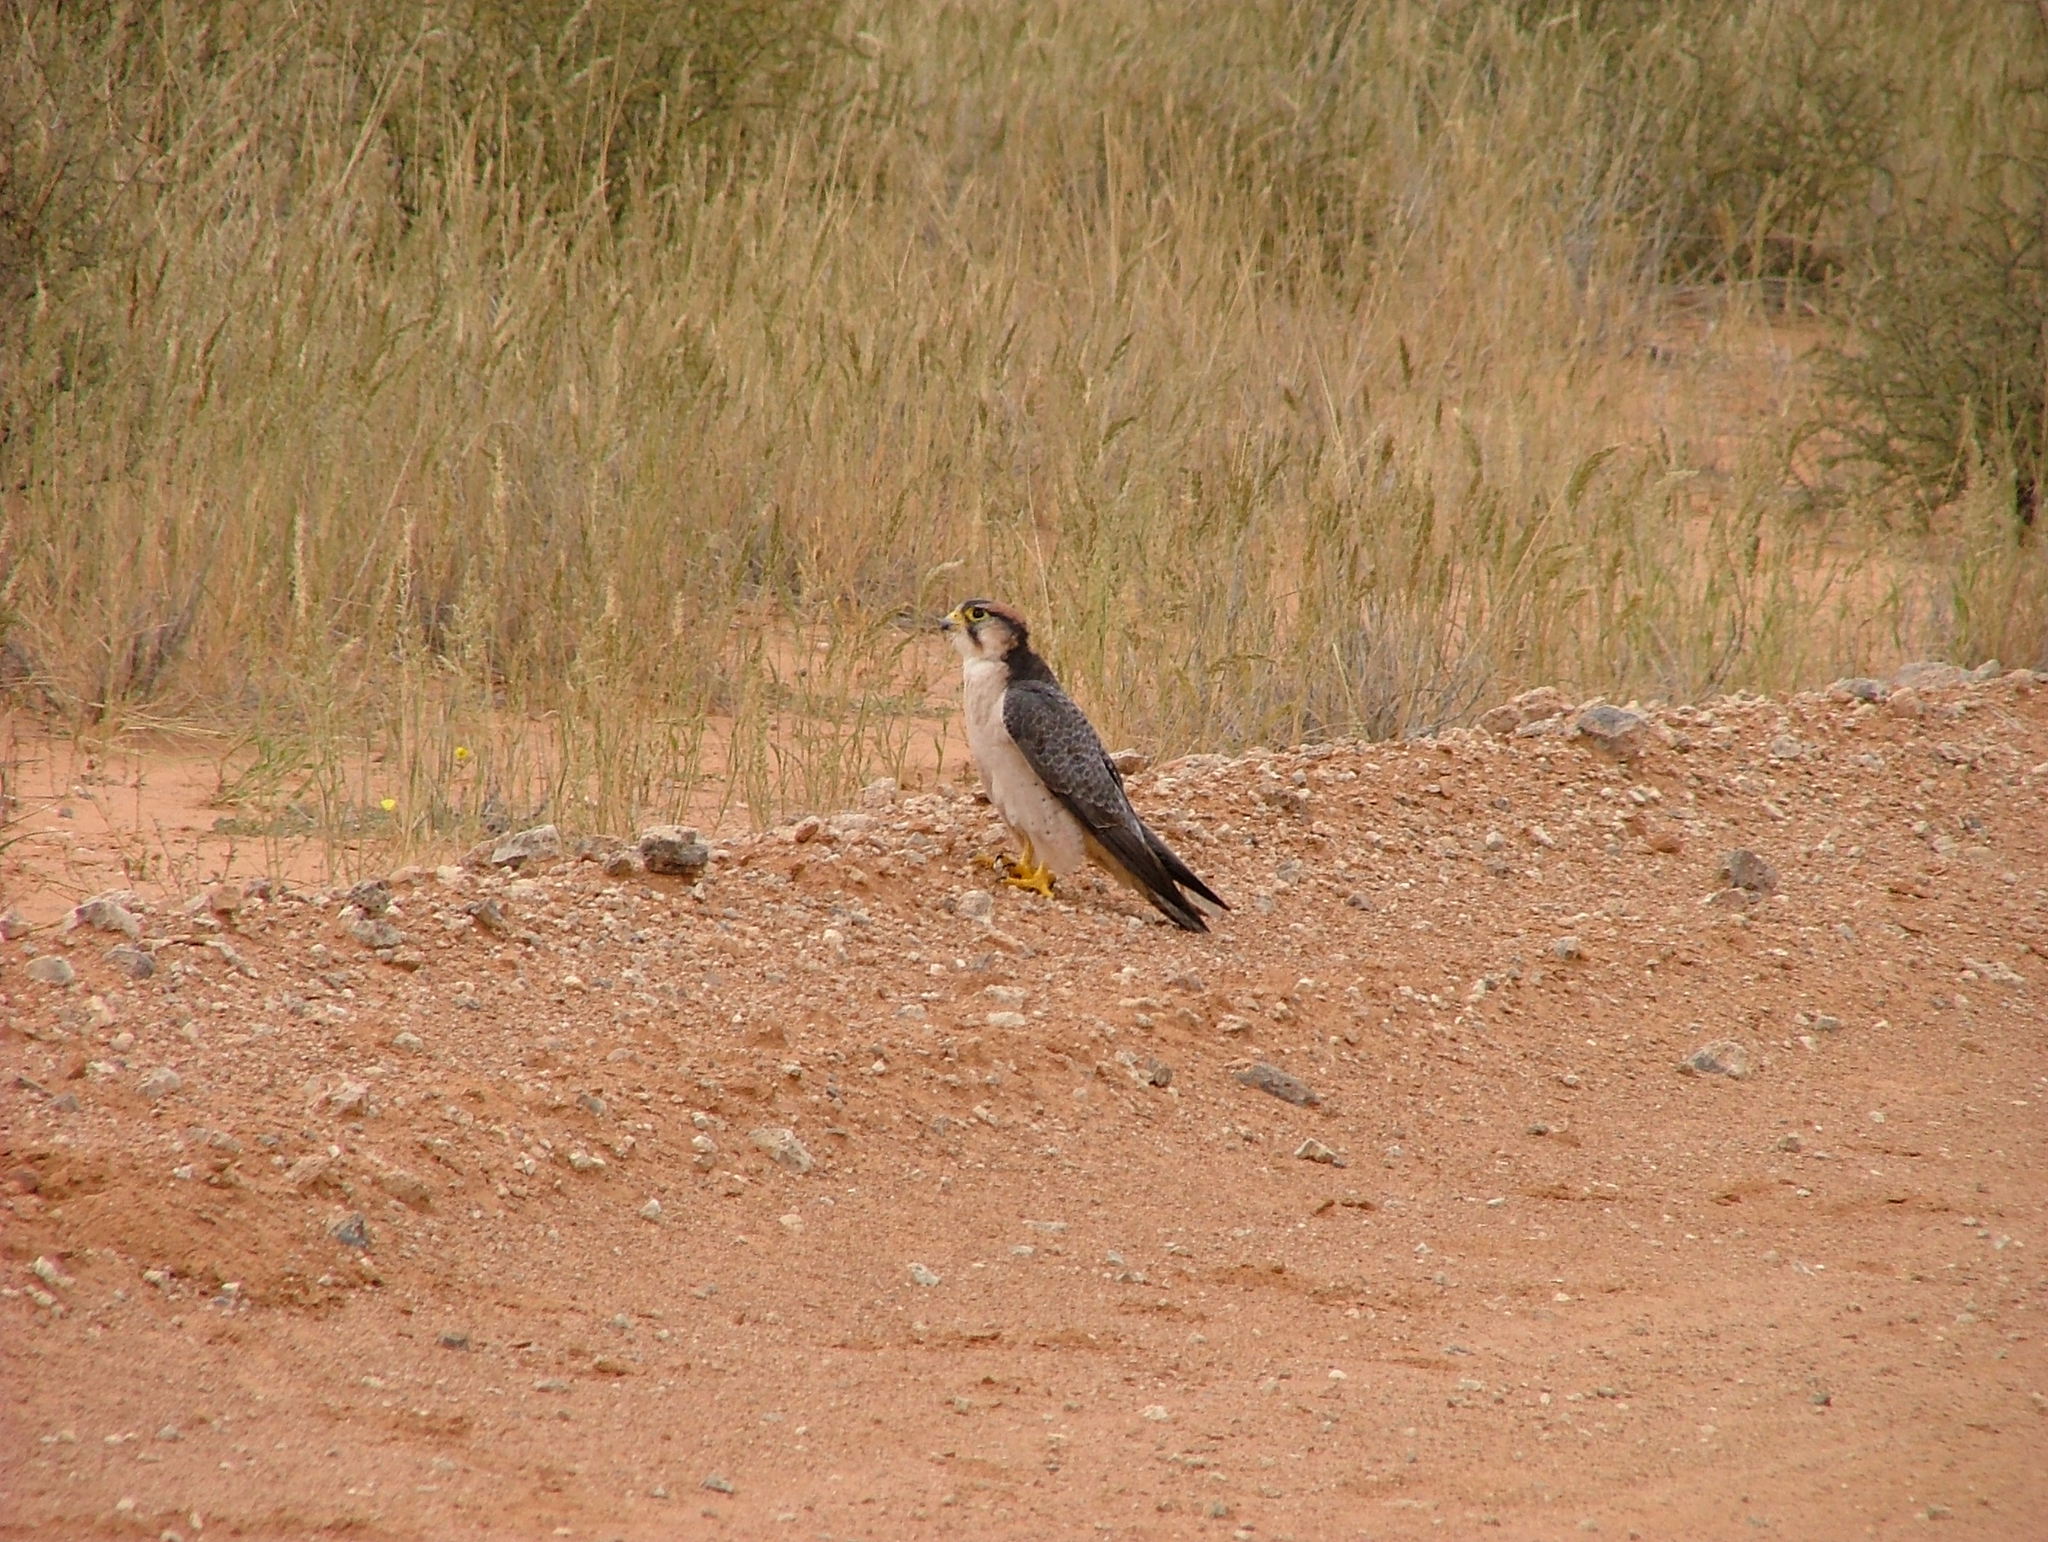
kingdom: Animalia
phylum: Chordata
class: Aves
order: Falconiformes
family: Falconidae
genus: Falco
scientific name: Falco biarmicus
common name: Lanner falcon
